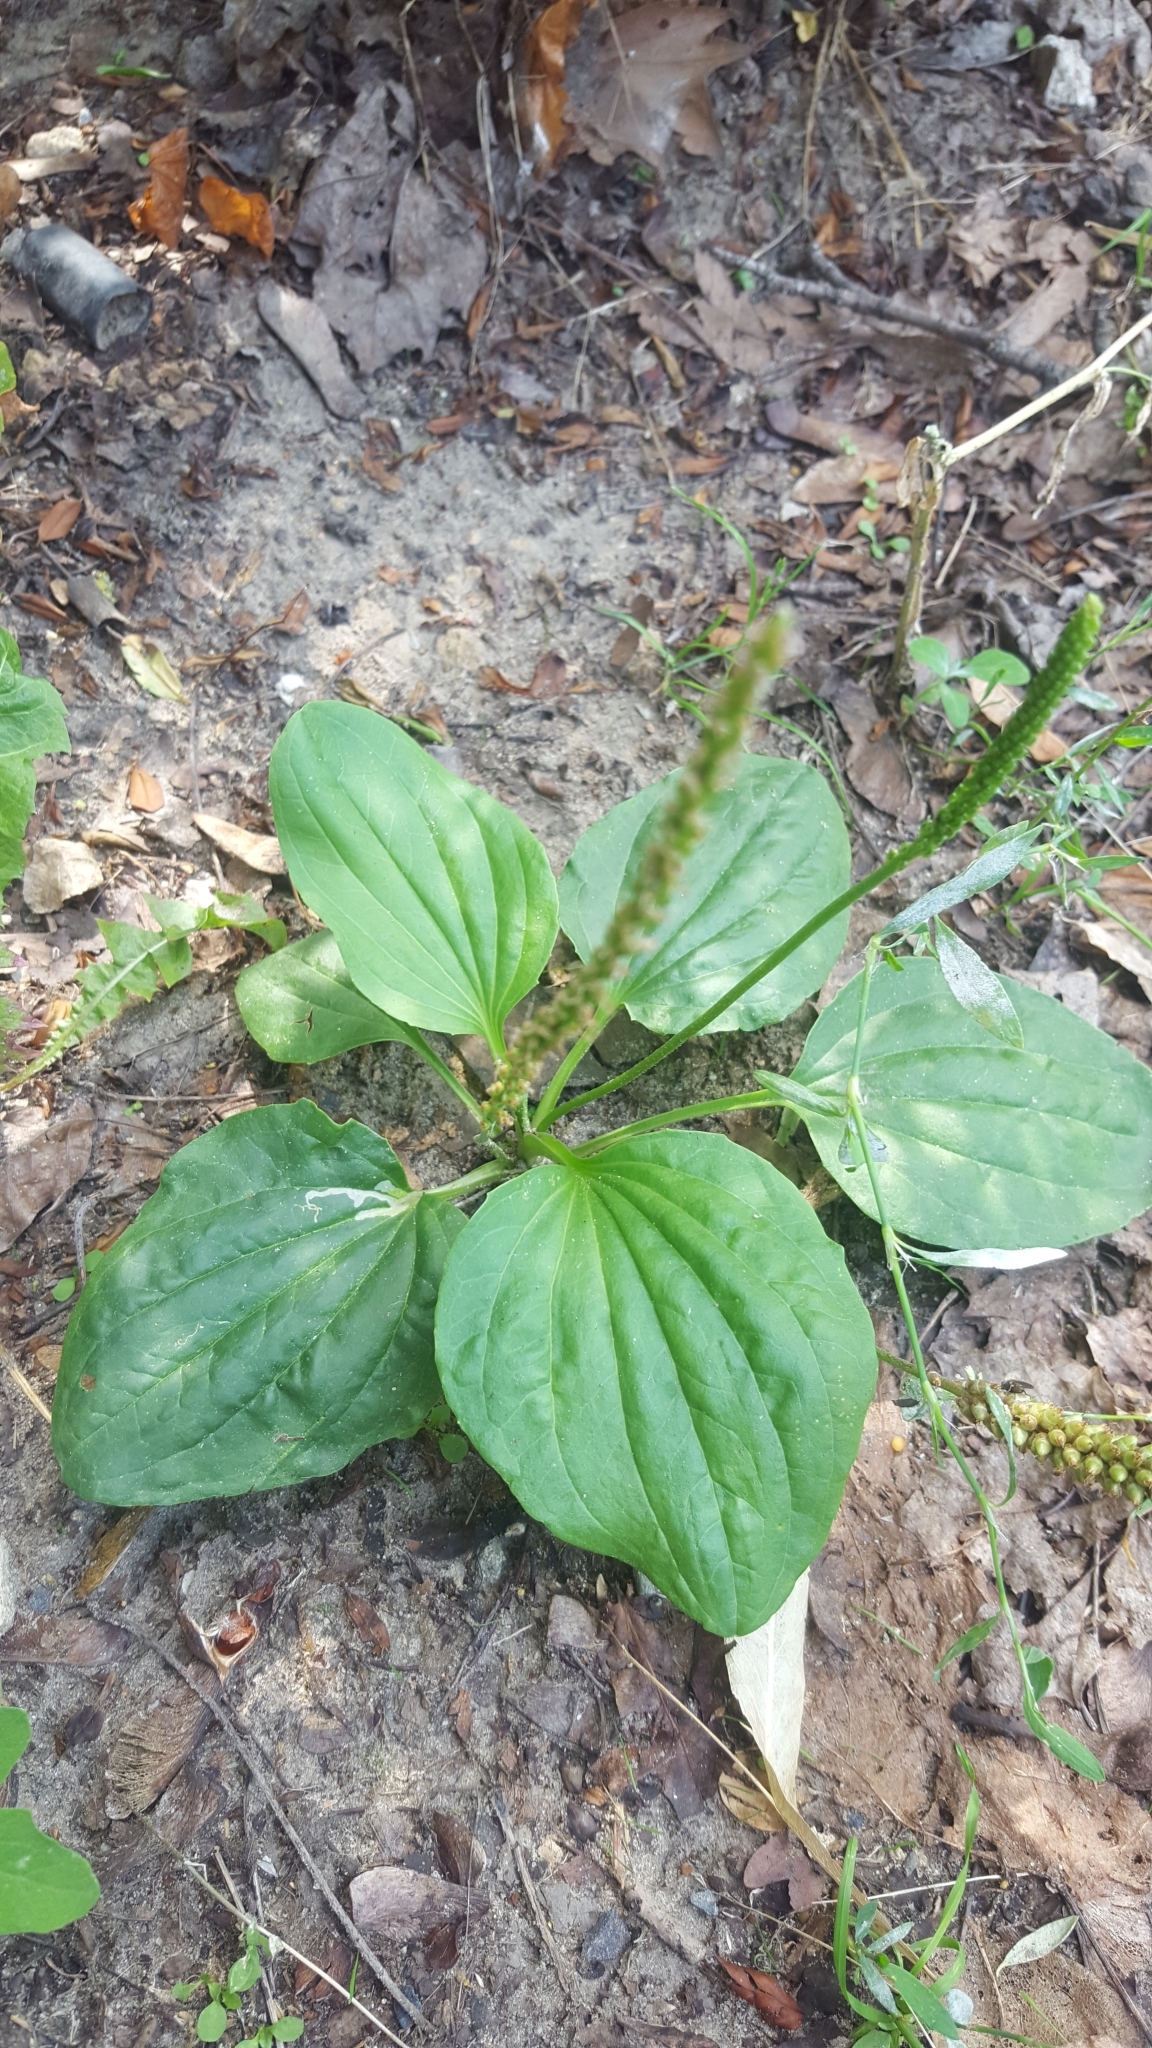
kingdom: Plantae
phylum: Tracheophyta
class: Magnoliopsida
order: Lamiales
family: Plantaginaceae
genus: Plantago
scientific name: Plantago major
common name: Common plantain
